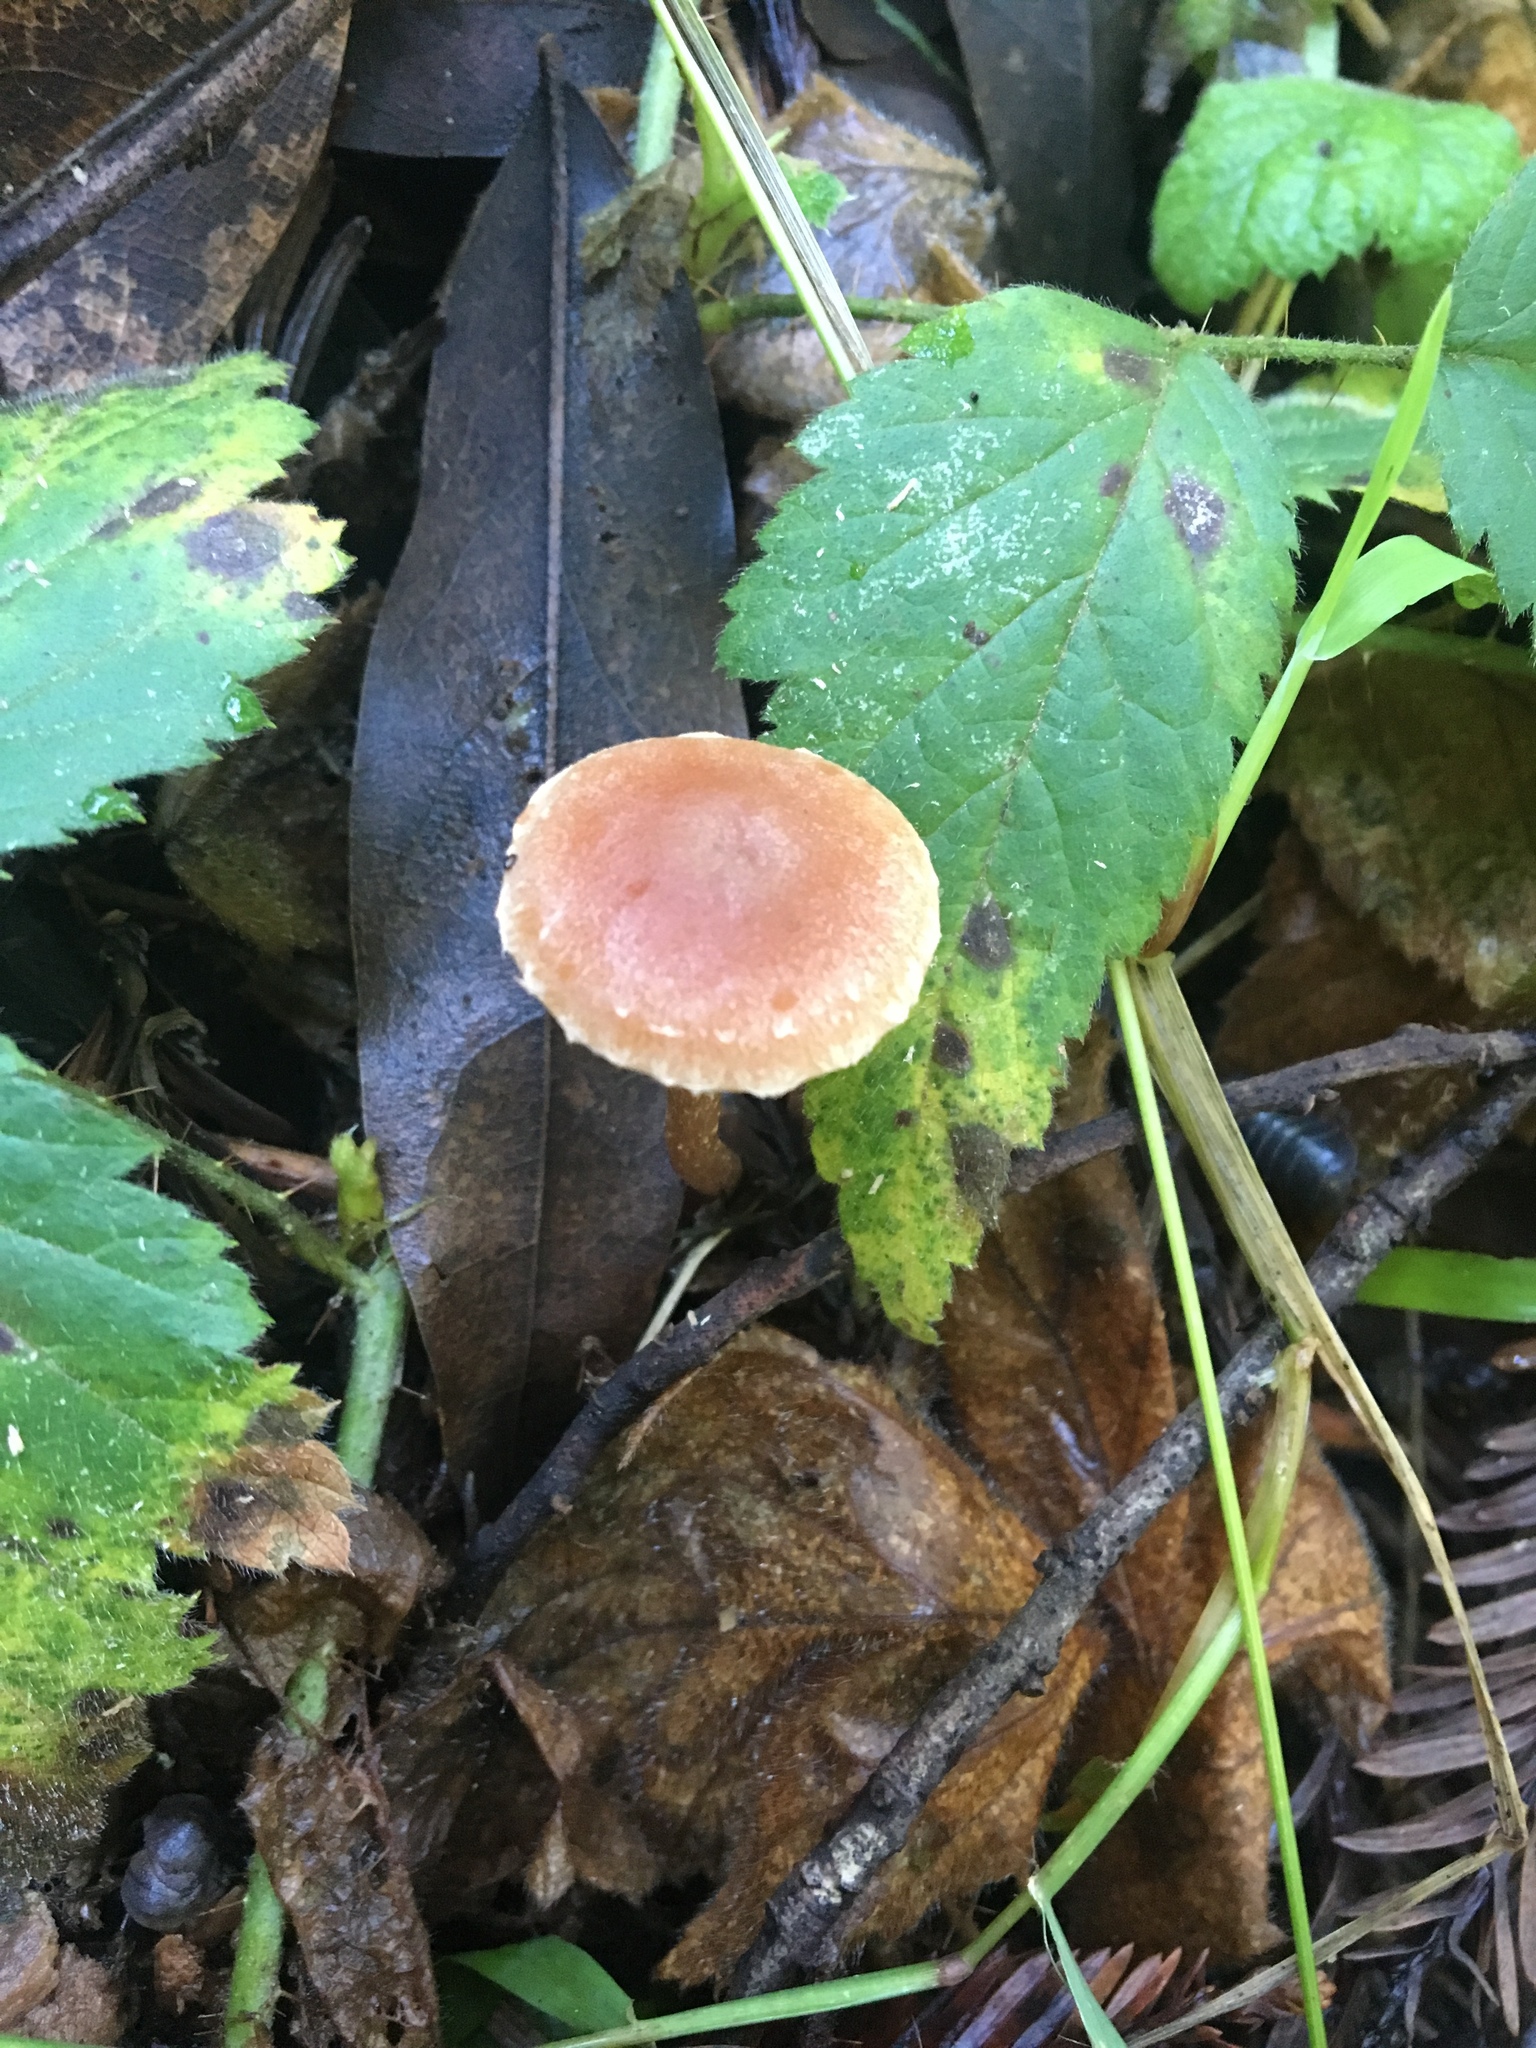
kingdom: Fungi
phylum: Basidiomycota
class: Agaricomycetes
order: Agaricales
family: Tubariaceae
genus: Tubaria
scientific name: Tubaria furfuracea
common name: Scurfy twiglet
